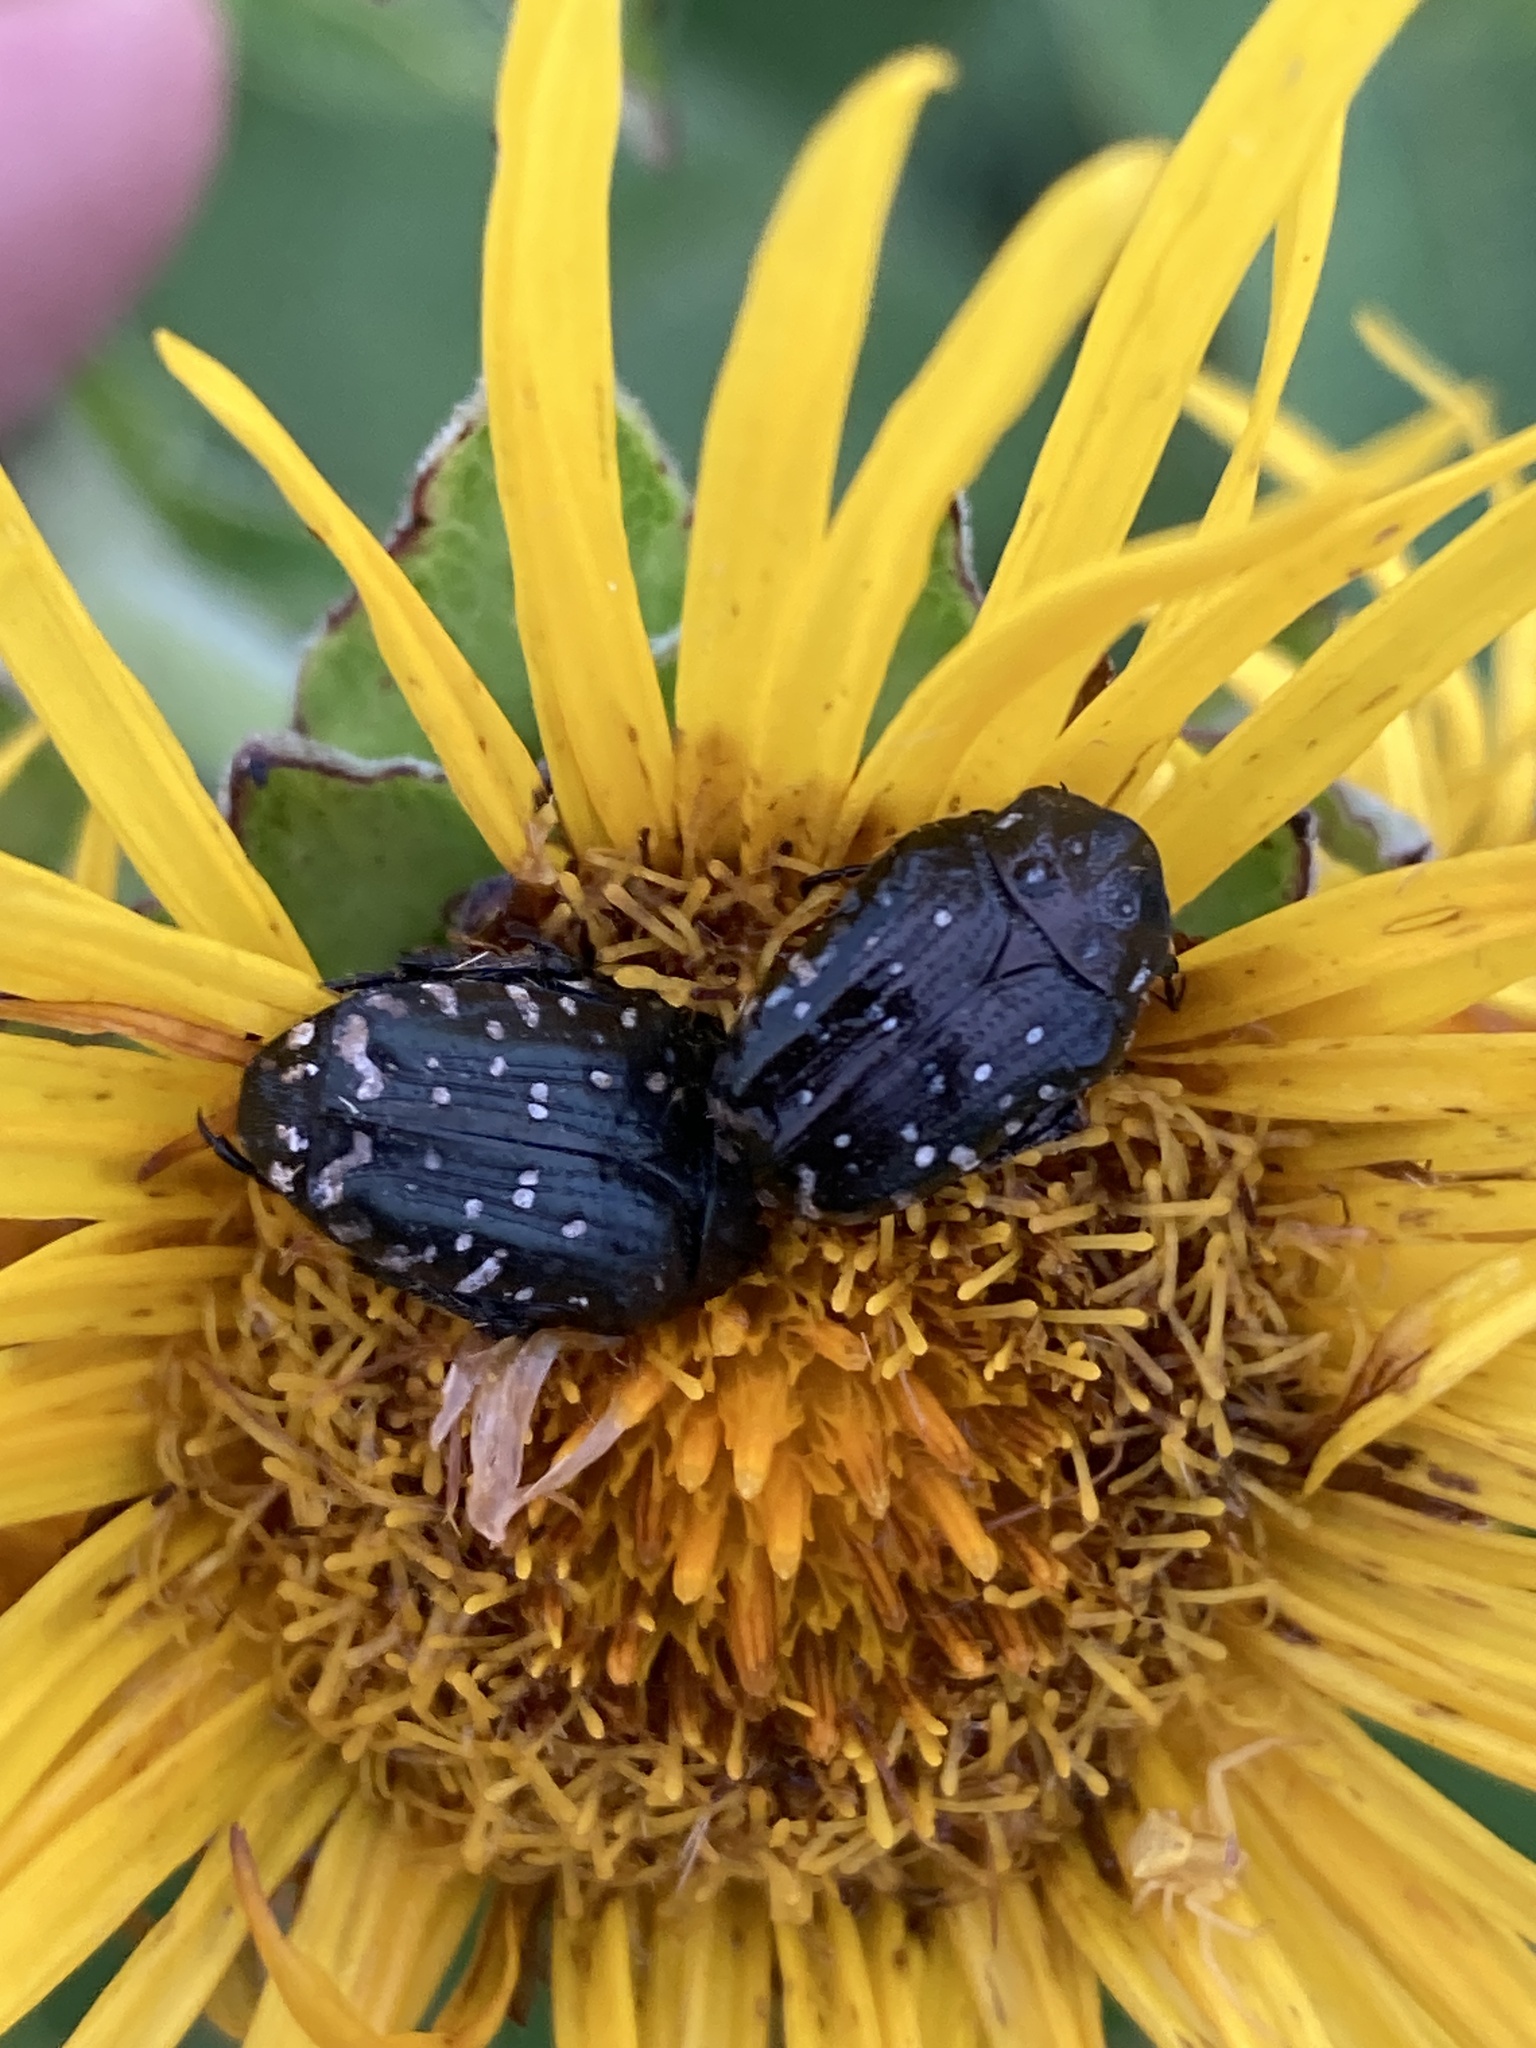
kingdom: Animalia
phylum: Arthropoda
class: Insecta
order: Coleoptera
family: Scarabaeidae
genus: Oxythyrea
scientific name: Oxythyrea funesta
